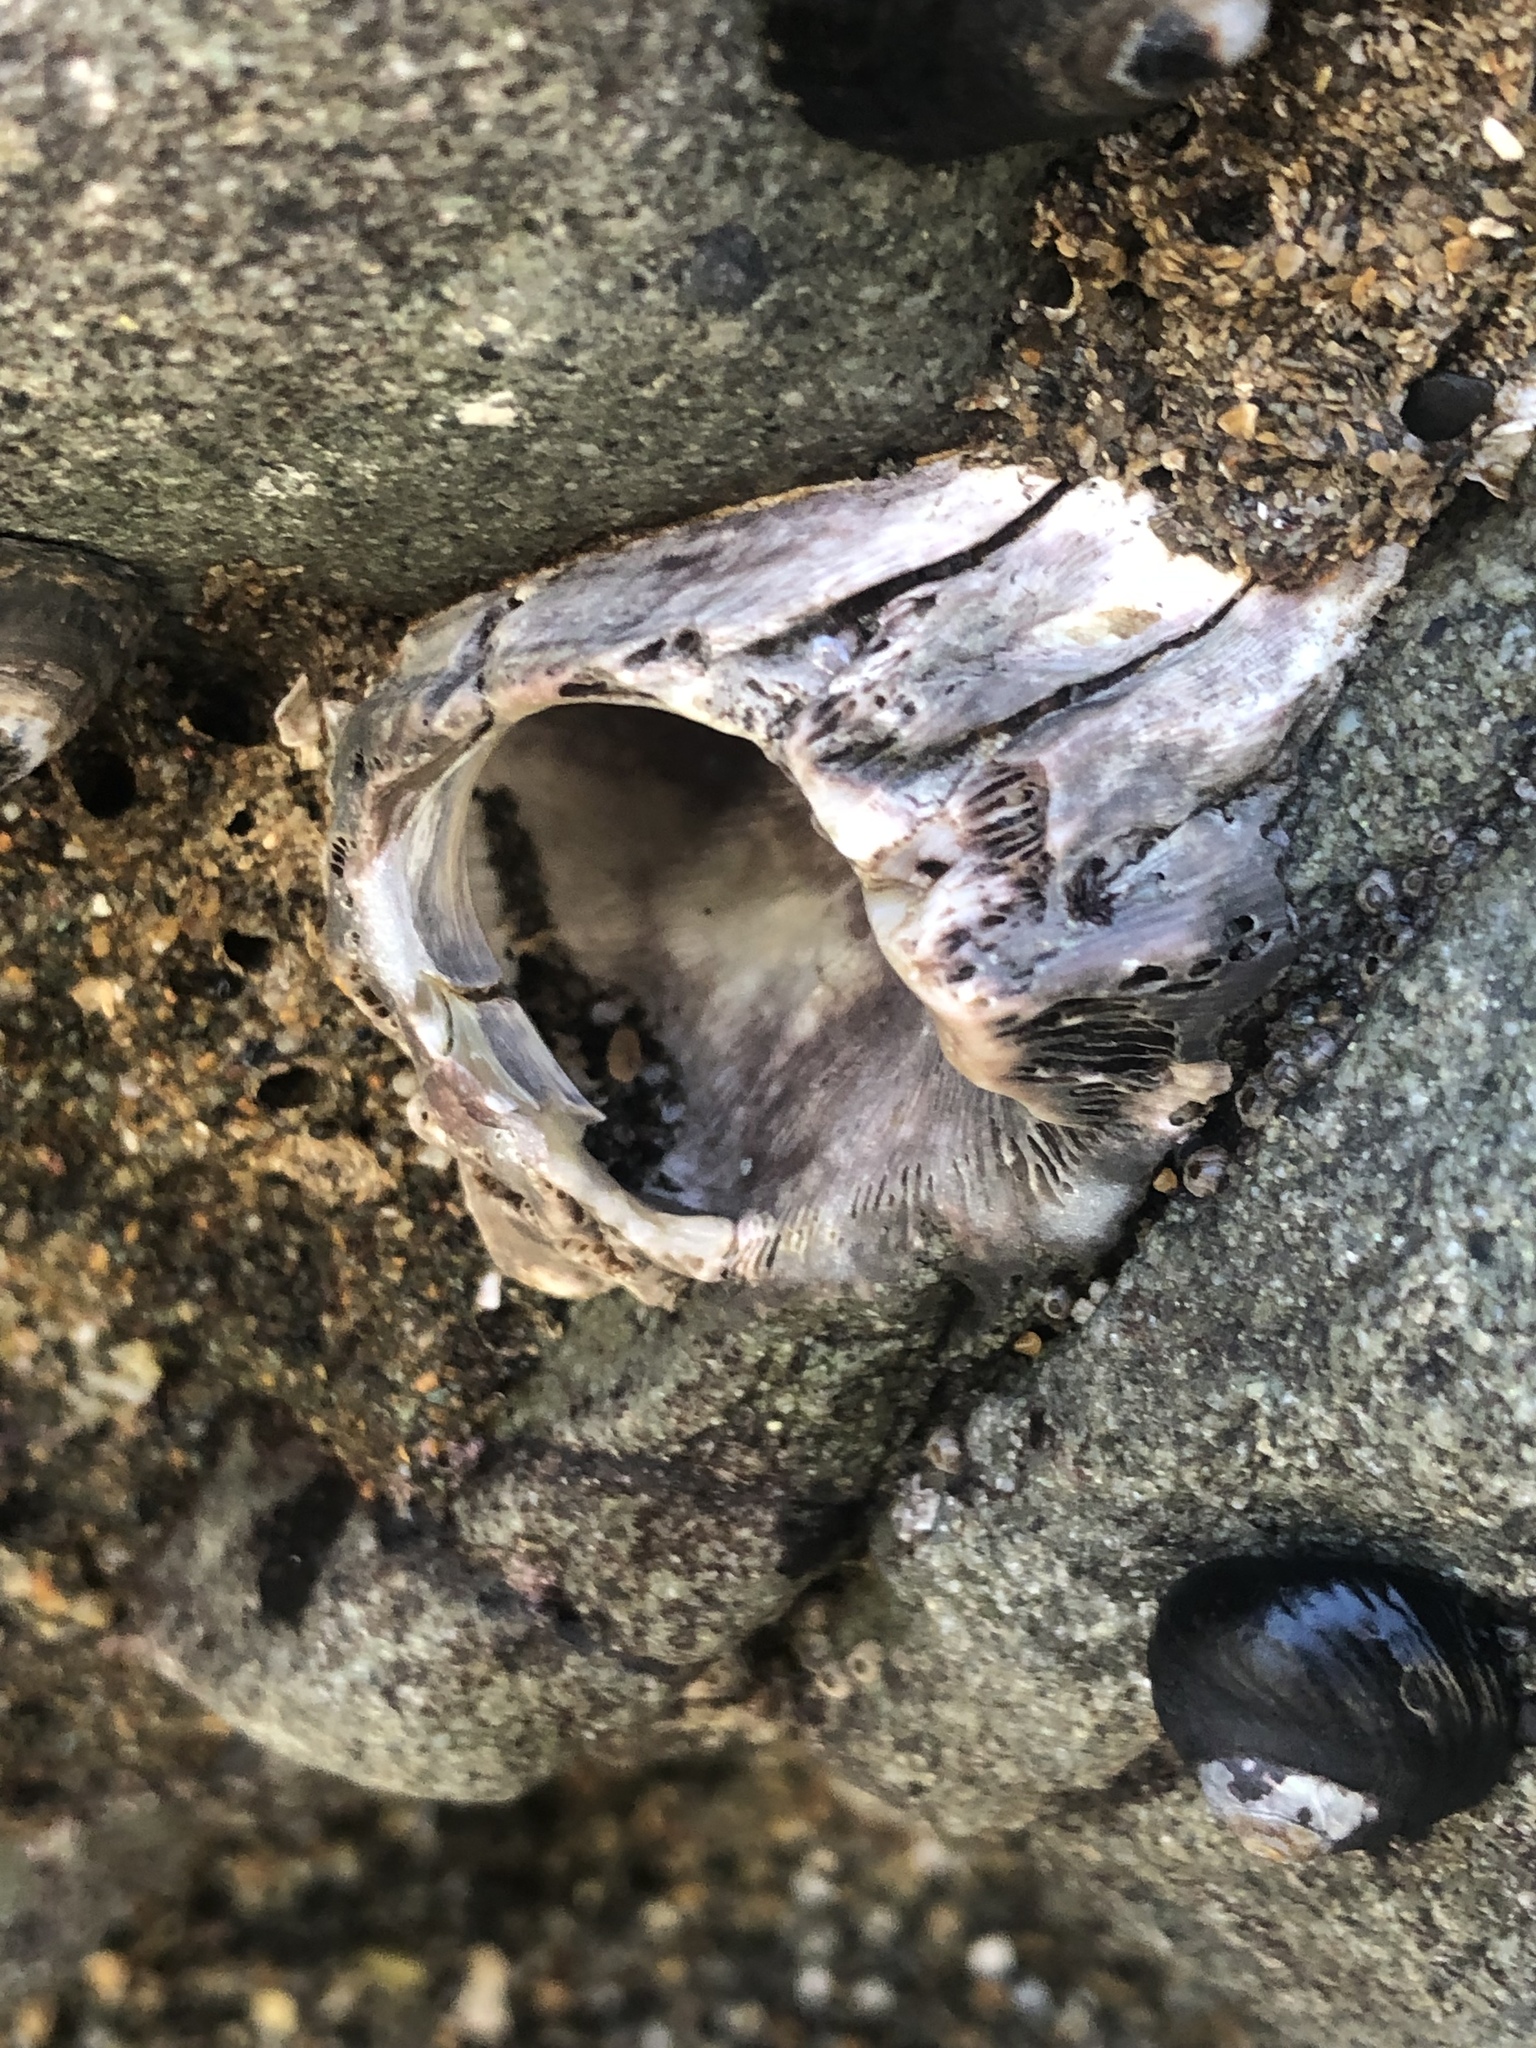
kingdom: Animalia
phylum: Arthropoda
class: Maxillopoda
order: Sessilia
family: Balanidae
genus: Balanus
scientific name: Balanus nubilus
